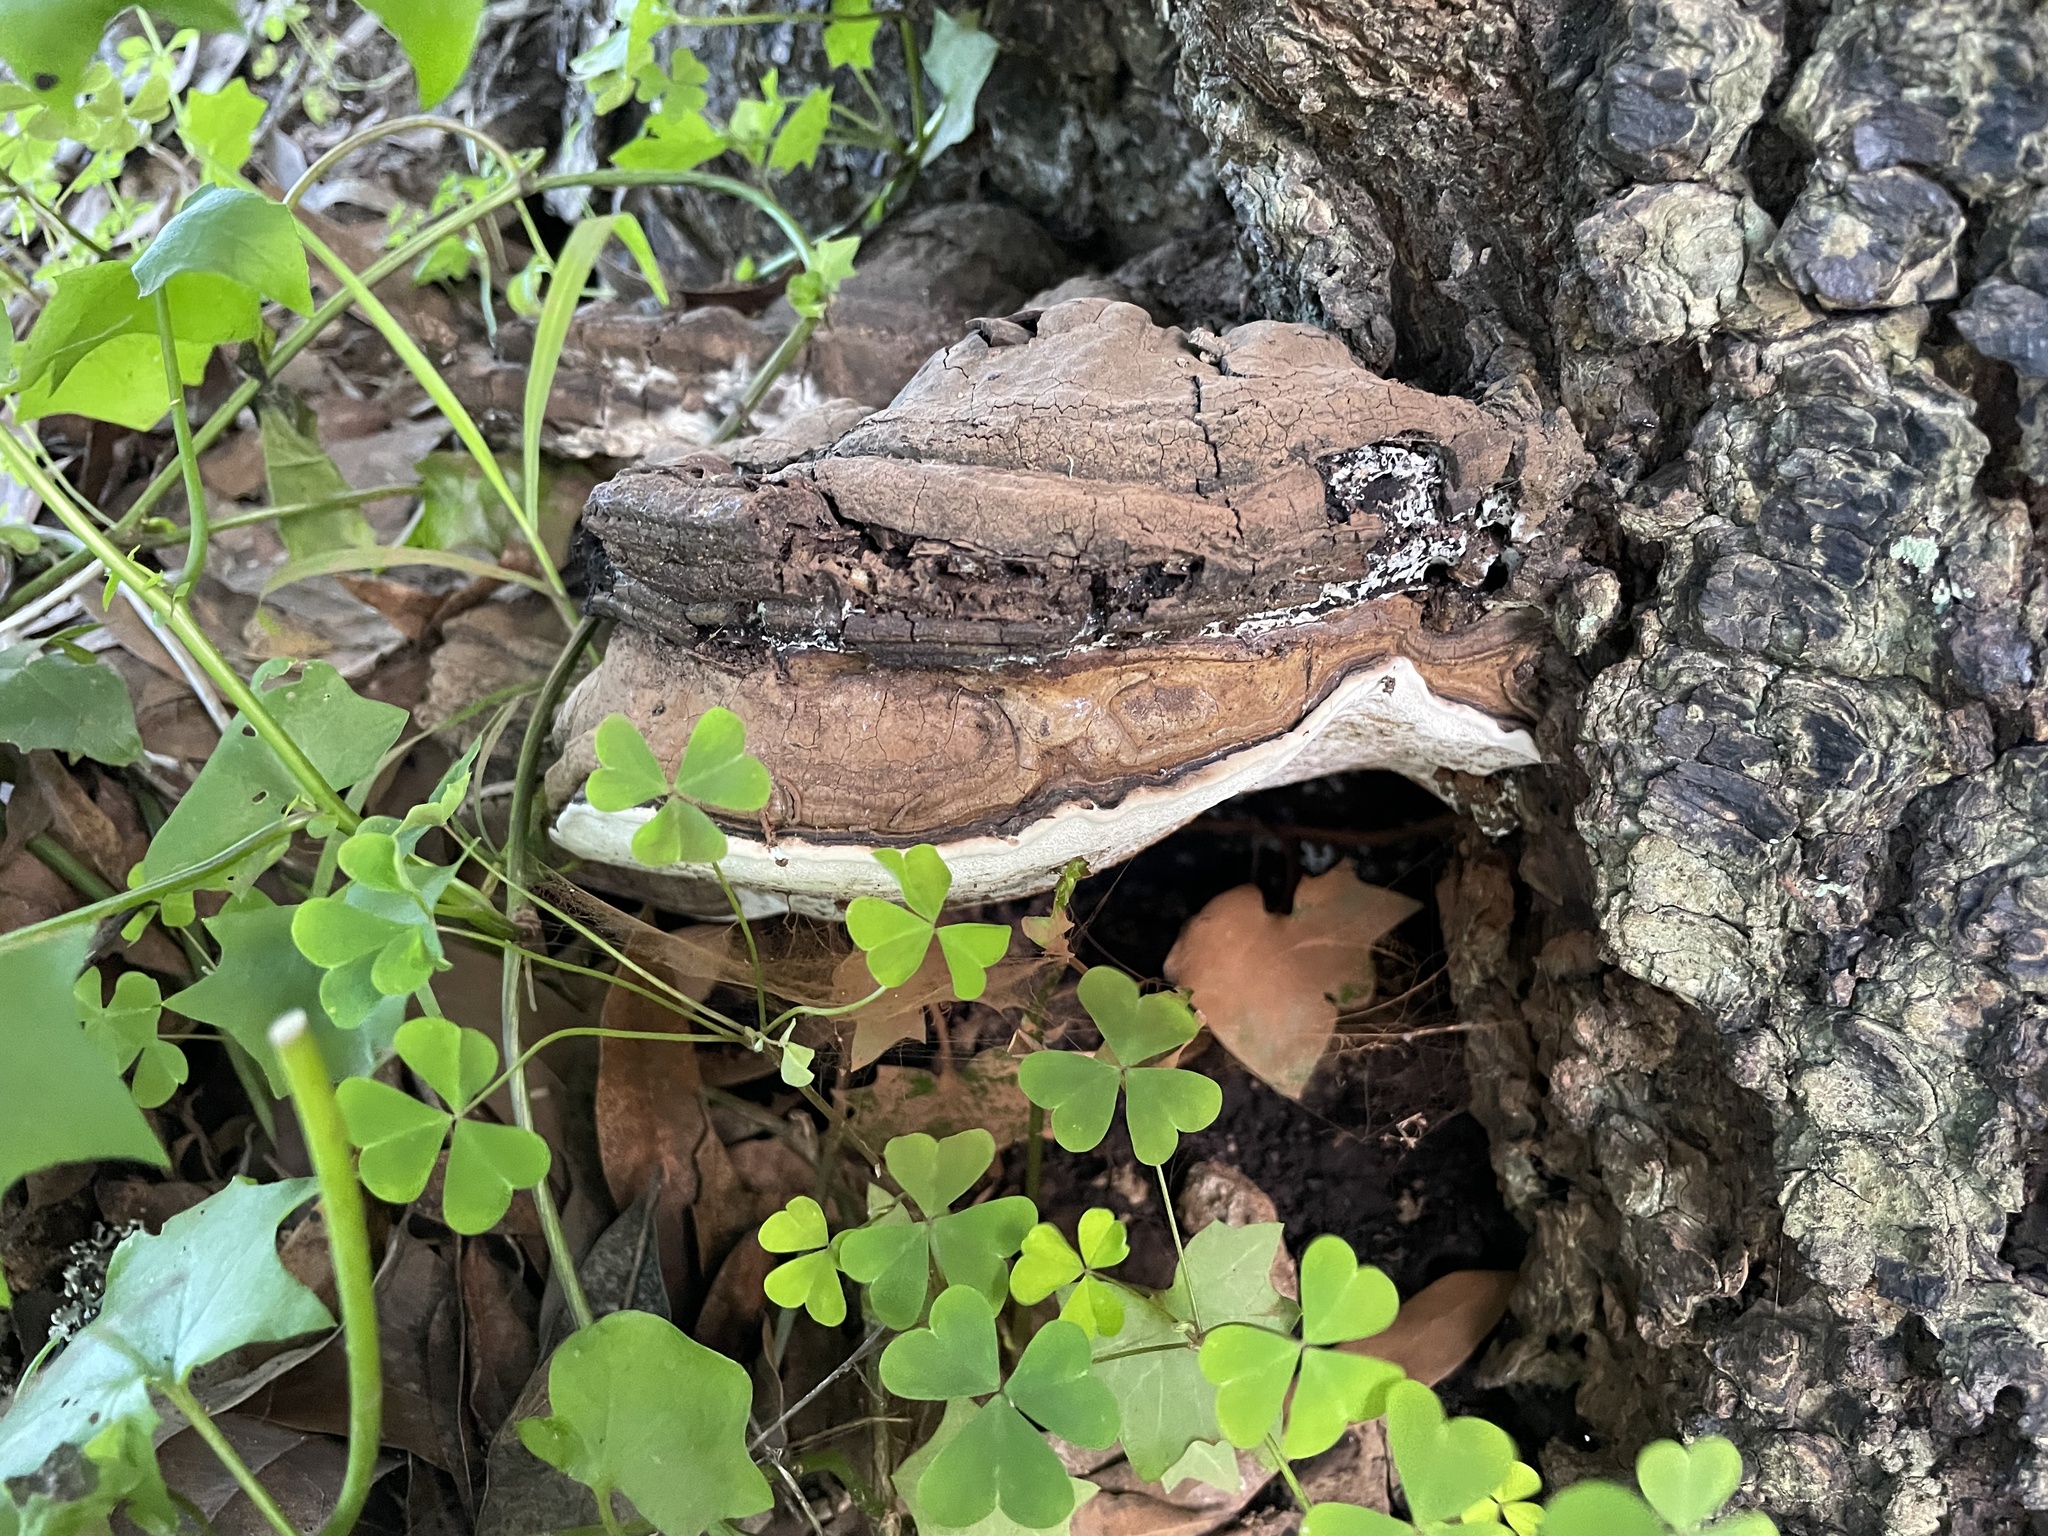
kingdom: Fungi
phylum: Basidiomycota
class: Agaricomycetes
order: Polyporales
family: Polyporaceae
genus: Ganoderma
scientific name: Ganoderma brownii
